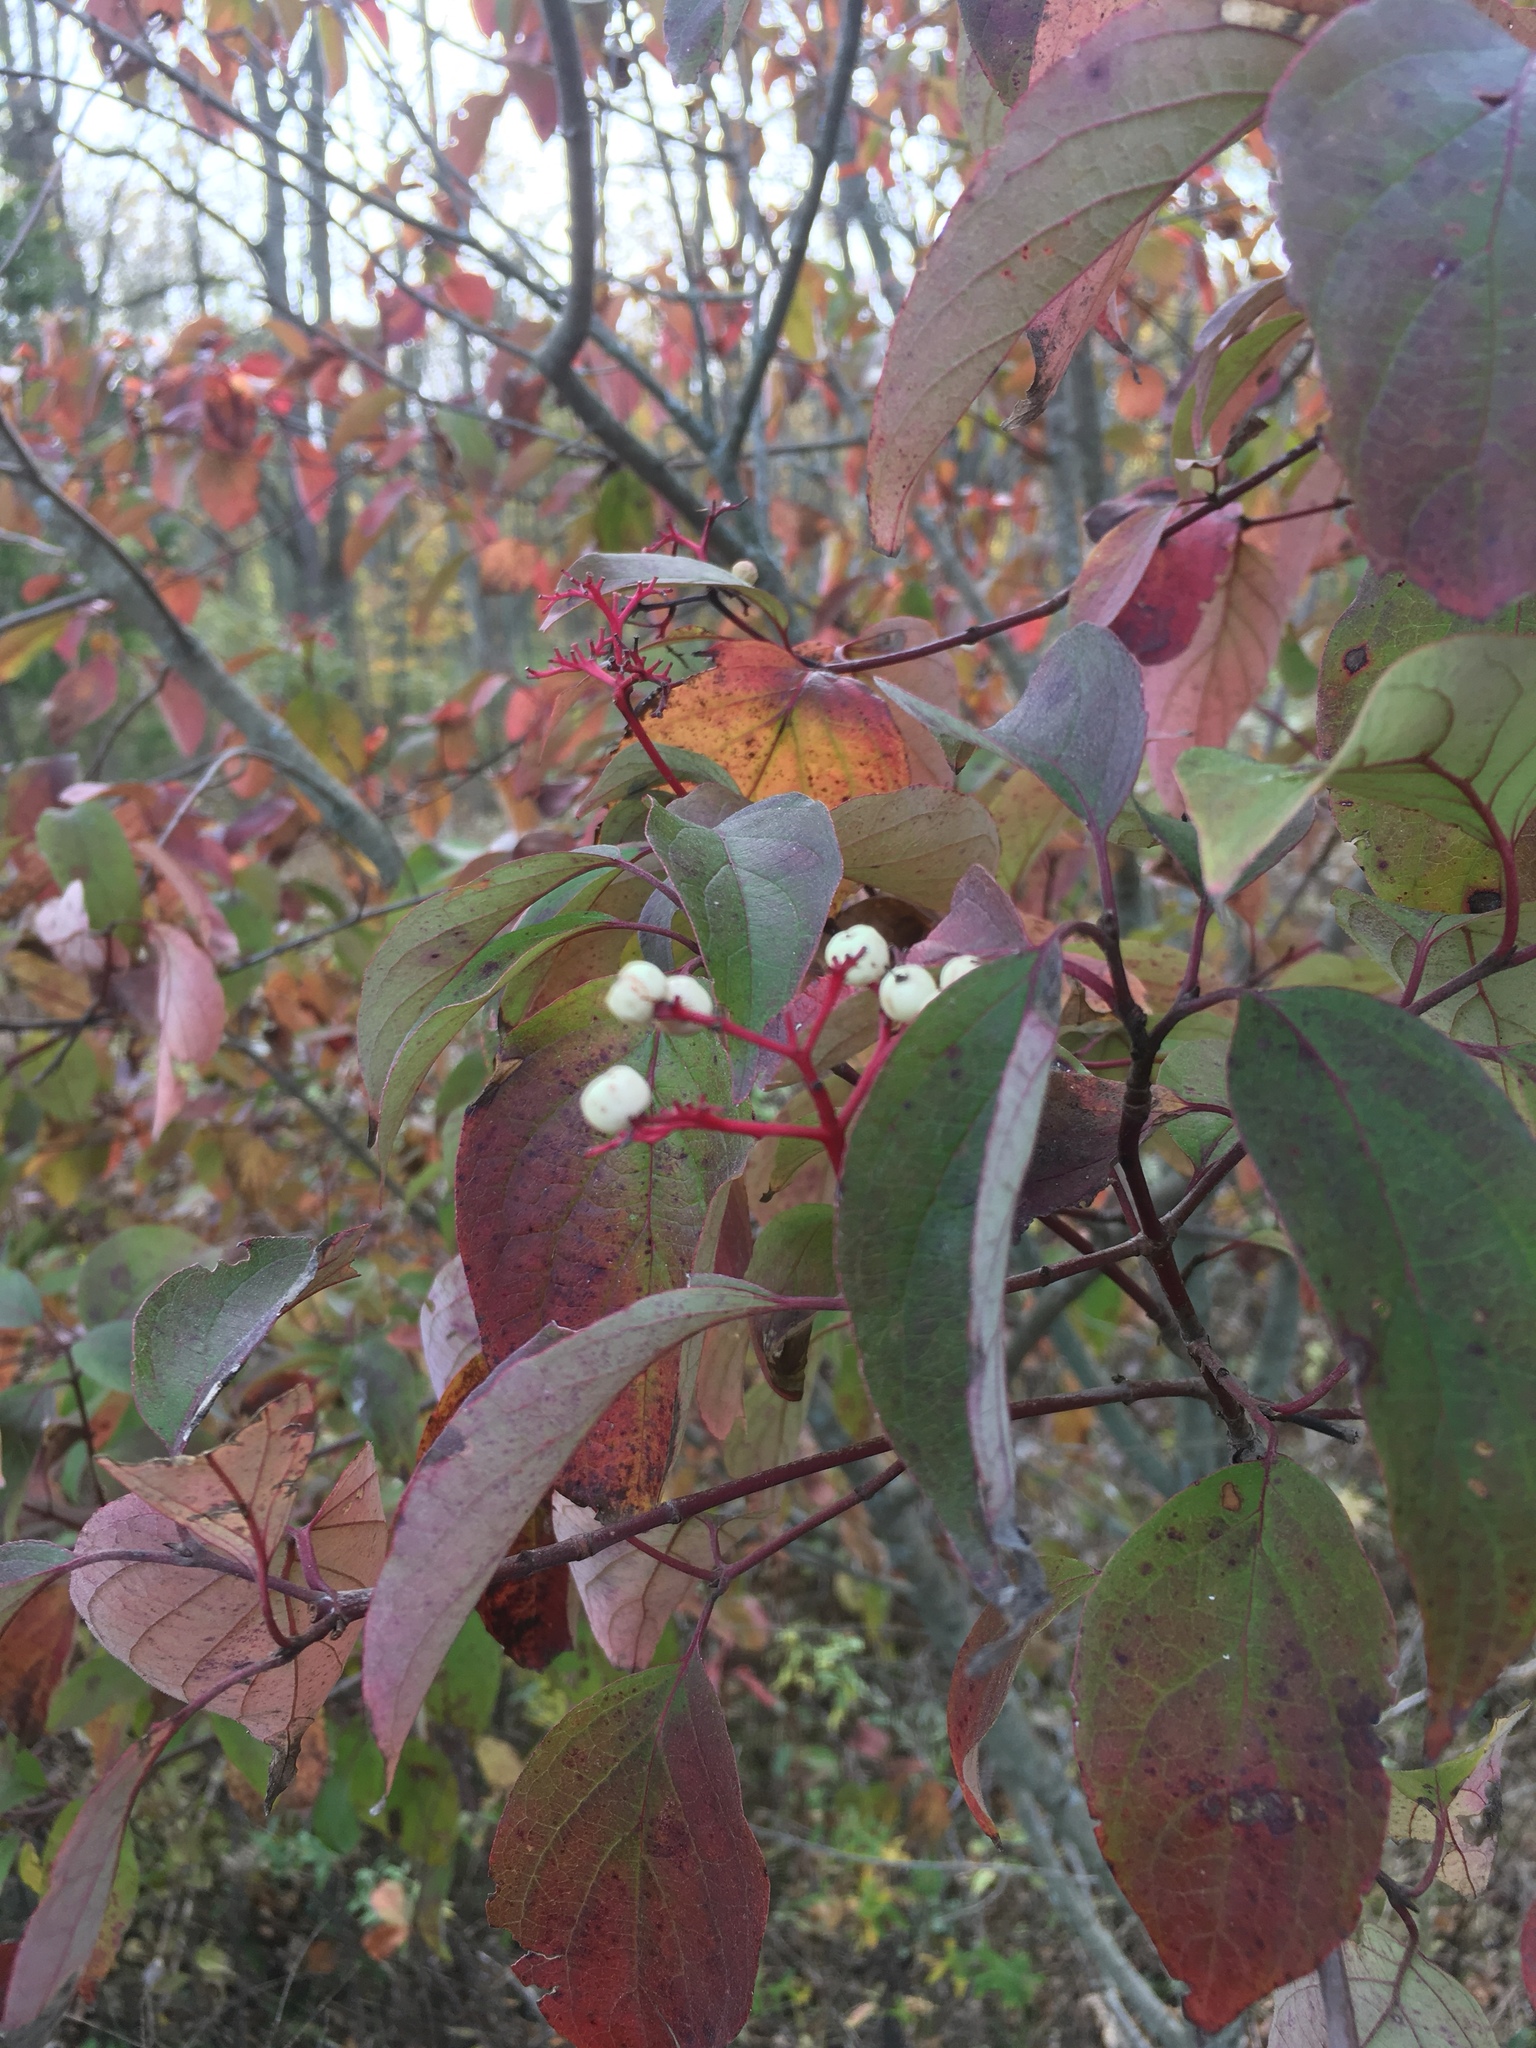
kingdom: Plantae
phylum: Tracheophyta
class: Magnoliopsida
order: Cornales
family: Cornaceae
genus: Cornus
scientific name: Cornus racemosa
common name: Panicled dogwood
